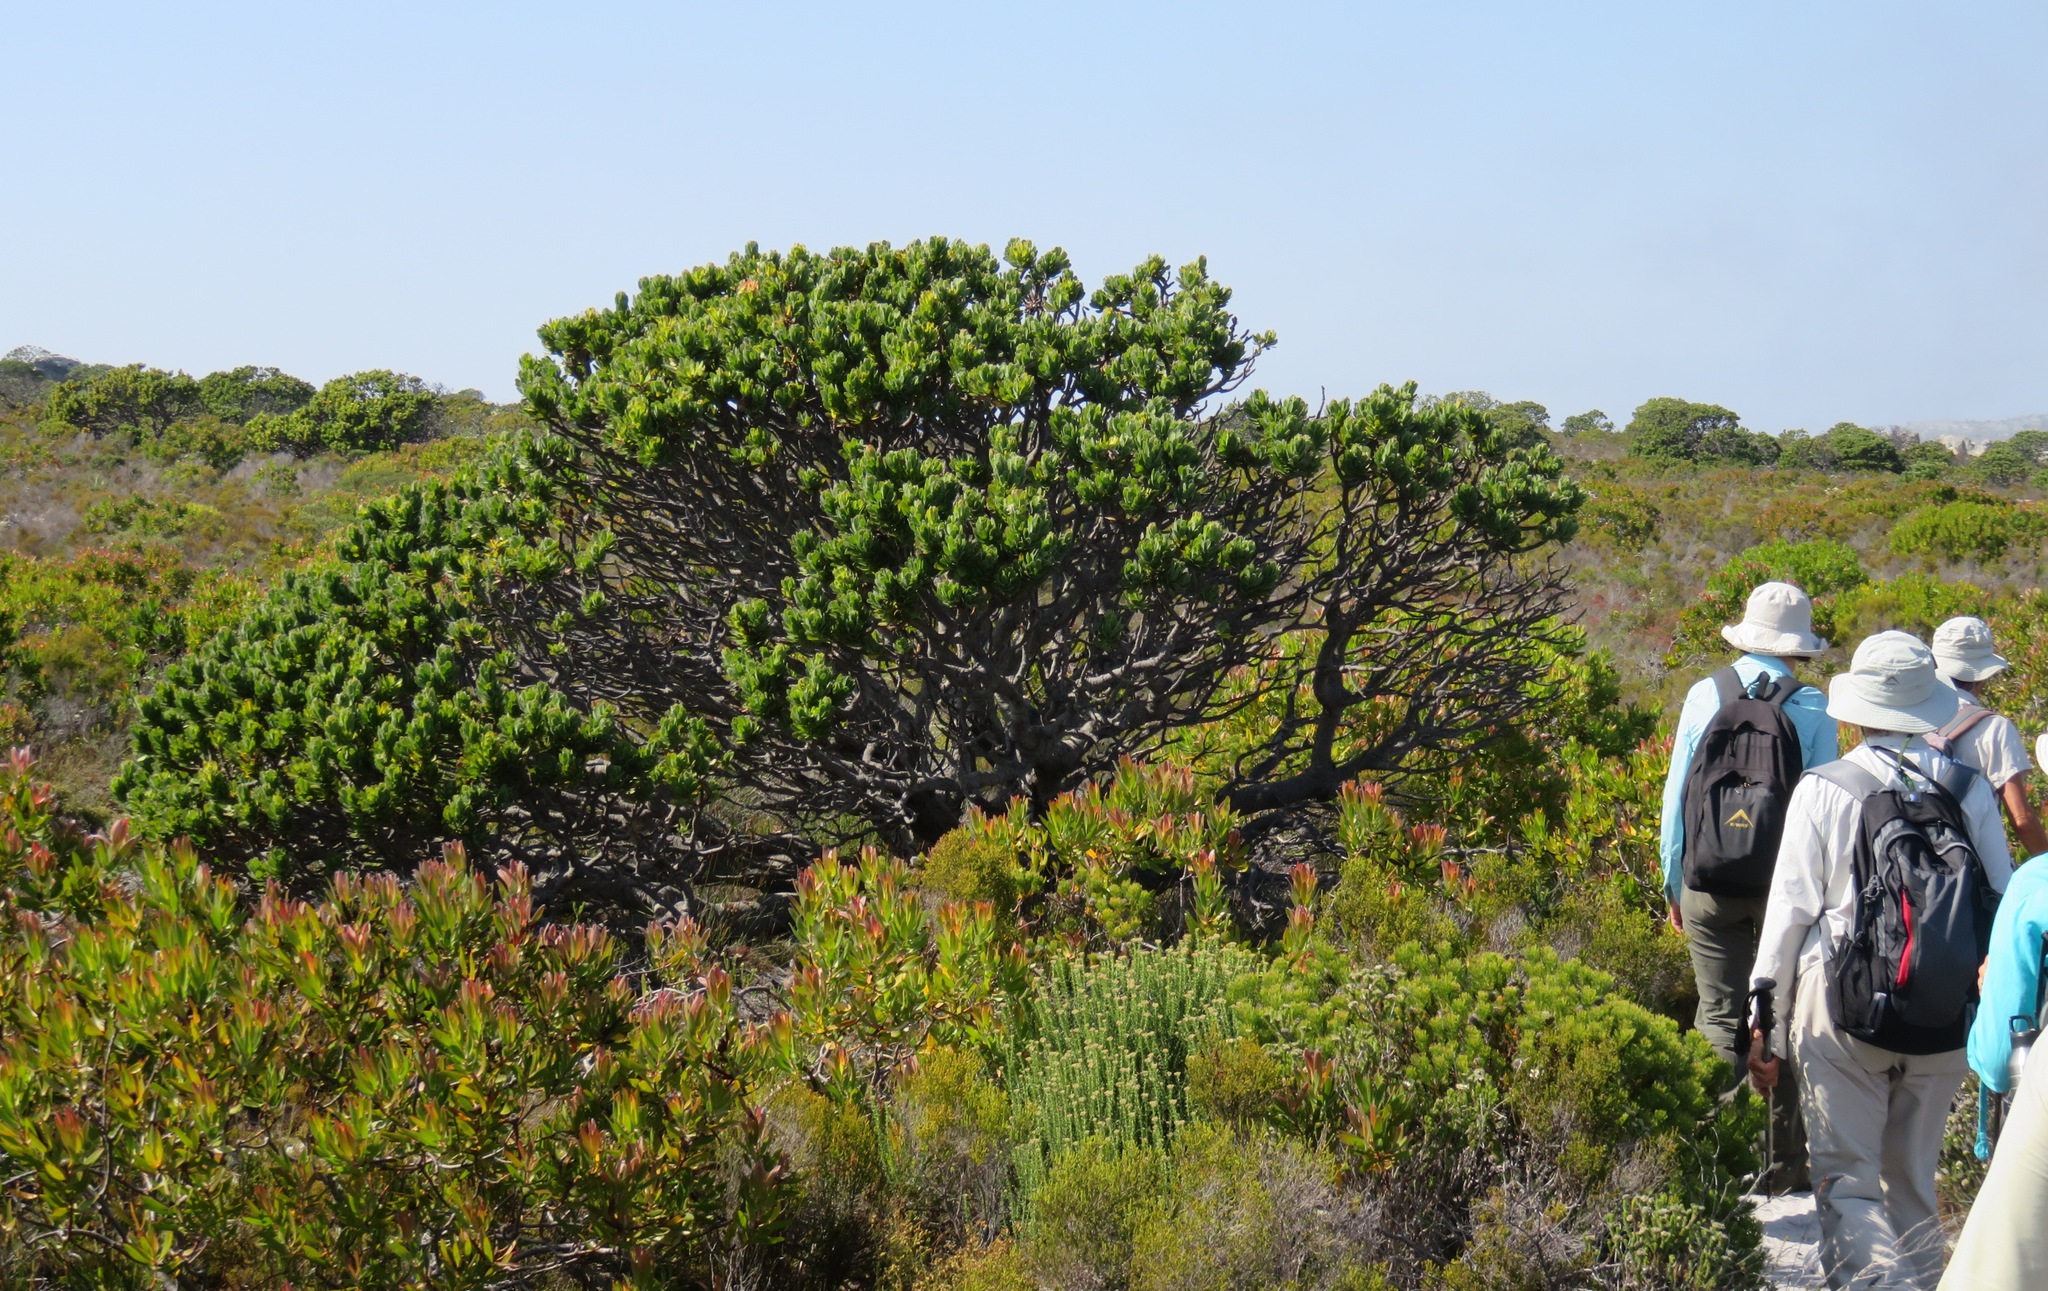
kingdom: Plantae
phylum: Tracheophyta
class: Magnoliopsida
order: Proteales
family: Proteaceae
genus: Mimetes
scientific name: Mimetes fimbriifolius
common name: Fringed bottlebrush
